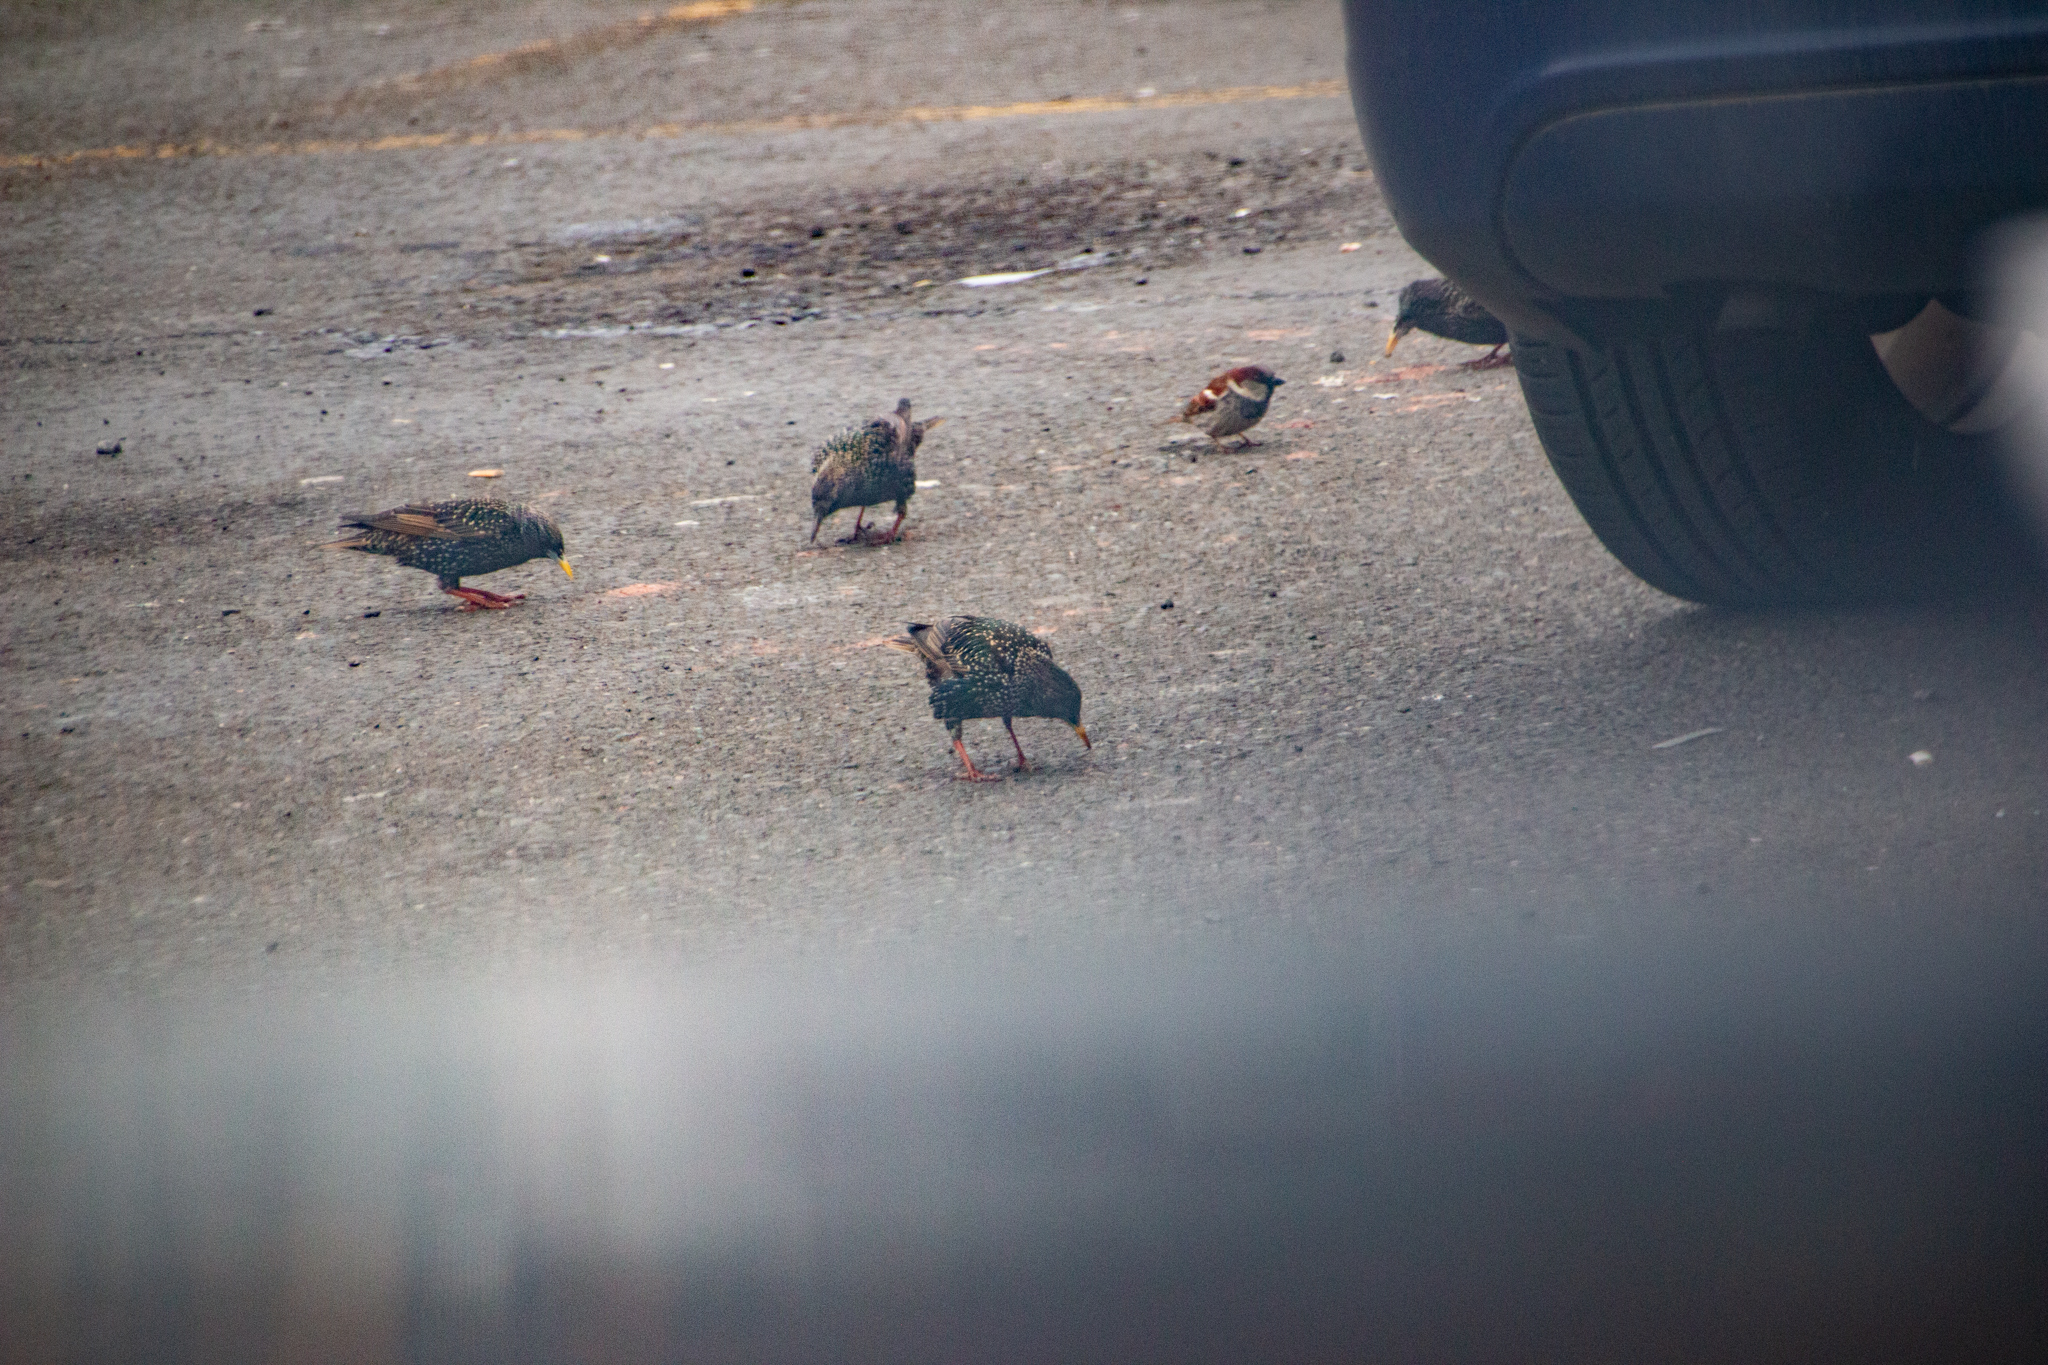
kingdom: Animalia
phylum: Chordata
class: Aves
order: Passeriformes
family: Passeridae
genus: Passer
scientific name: Passer domesticus
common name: House sparrow
